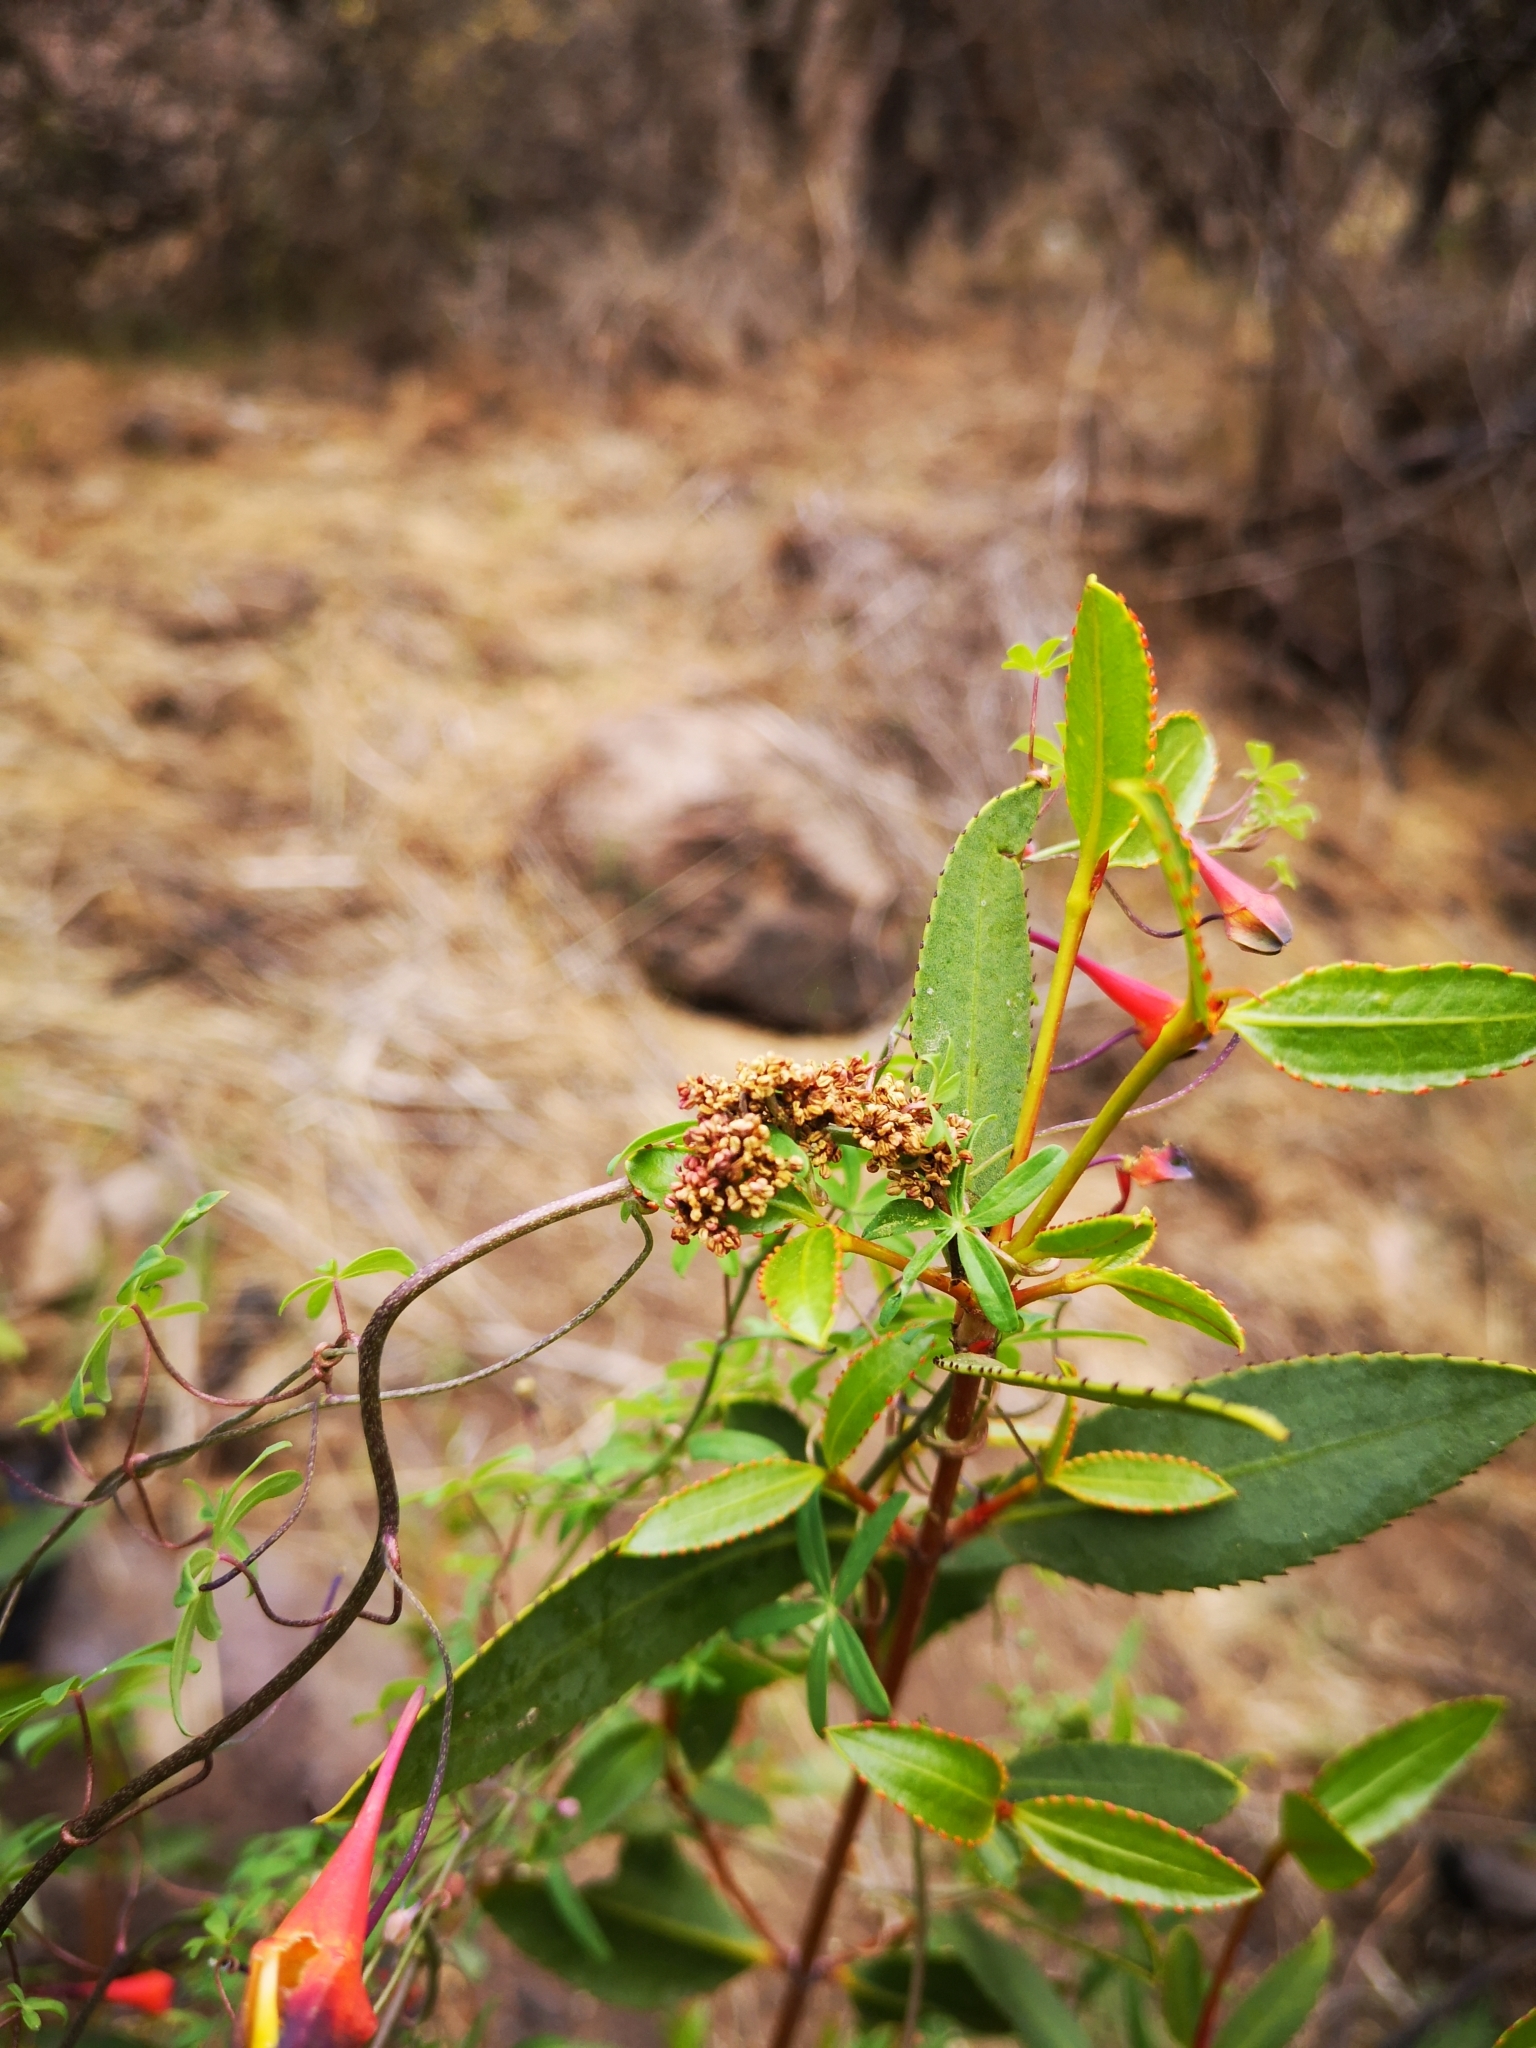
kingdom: Plantae
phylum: Tracheophyta
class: Magnoliopsida
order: Malpighiales
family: Euphorbiaceae
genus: Colliguaja
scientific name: Colliguaja odorifera
